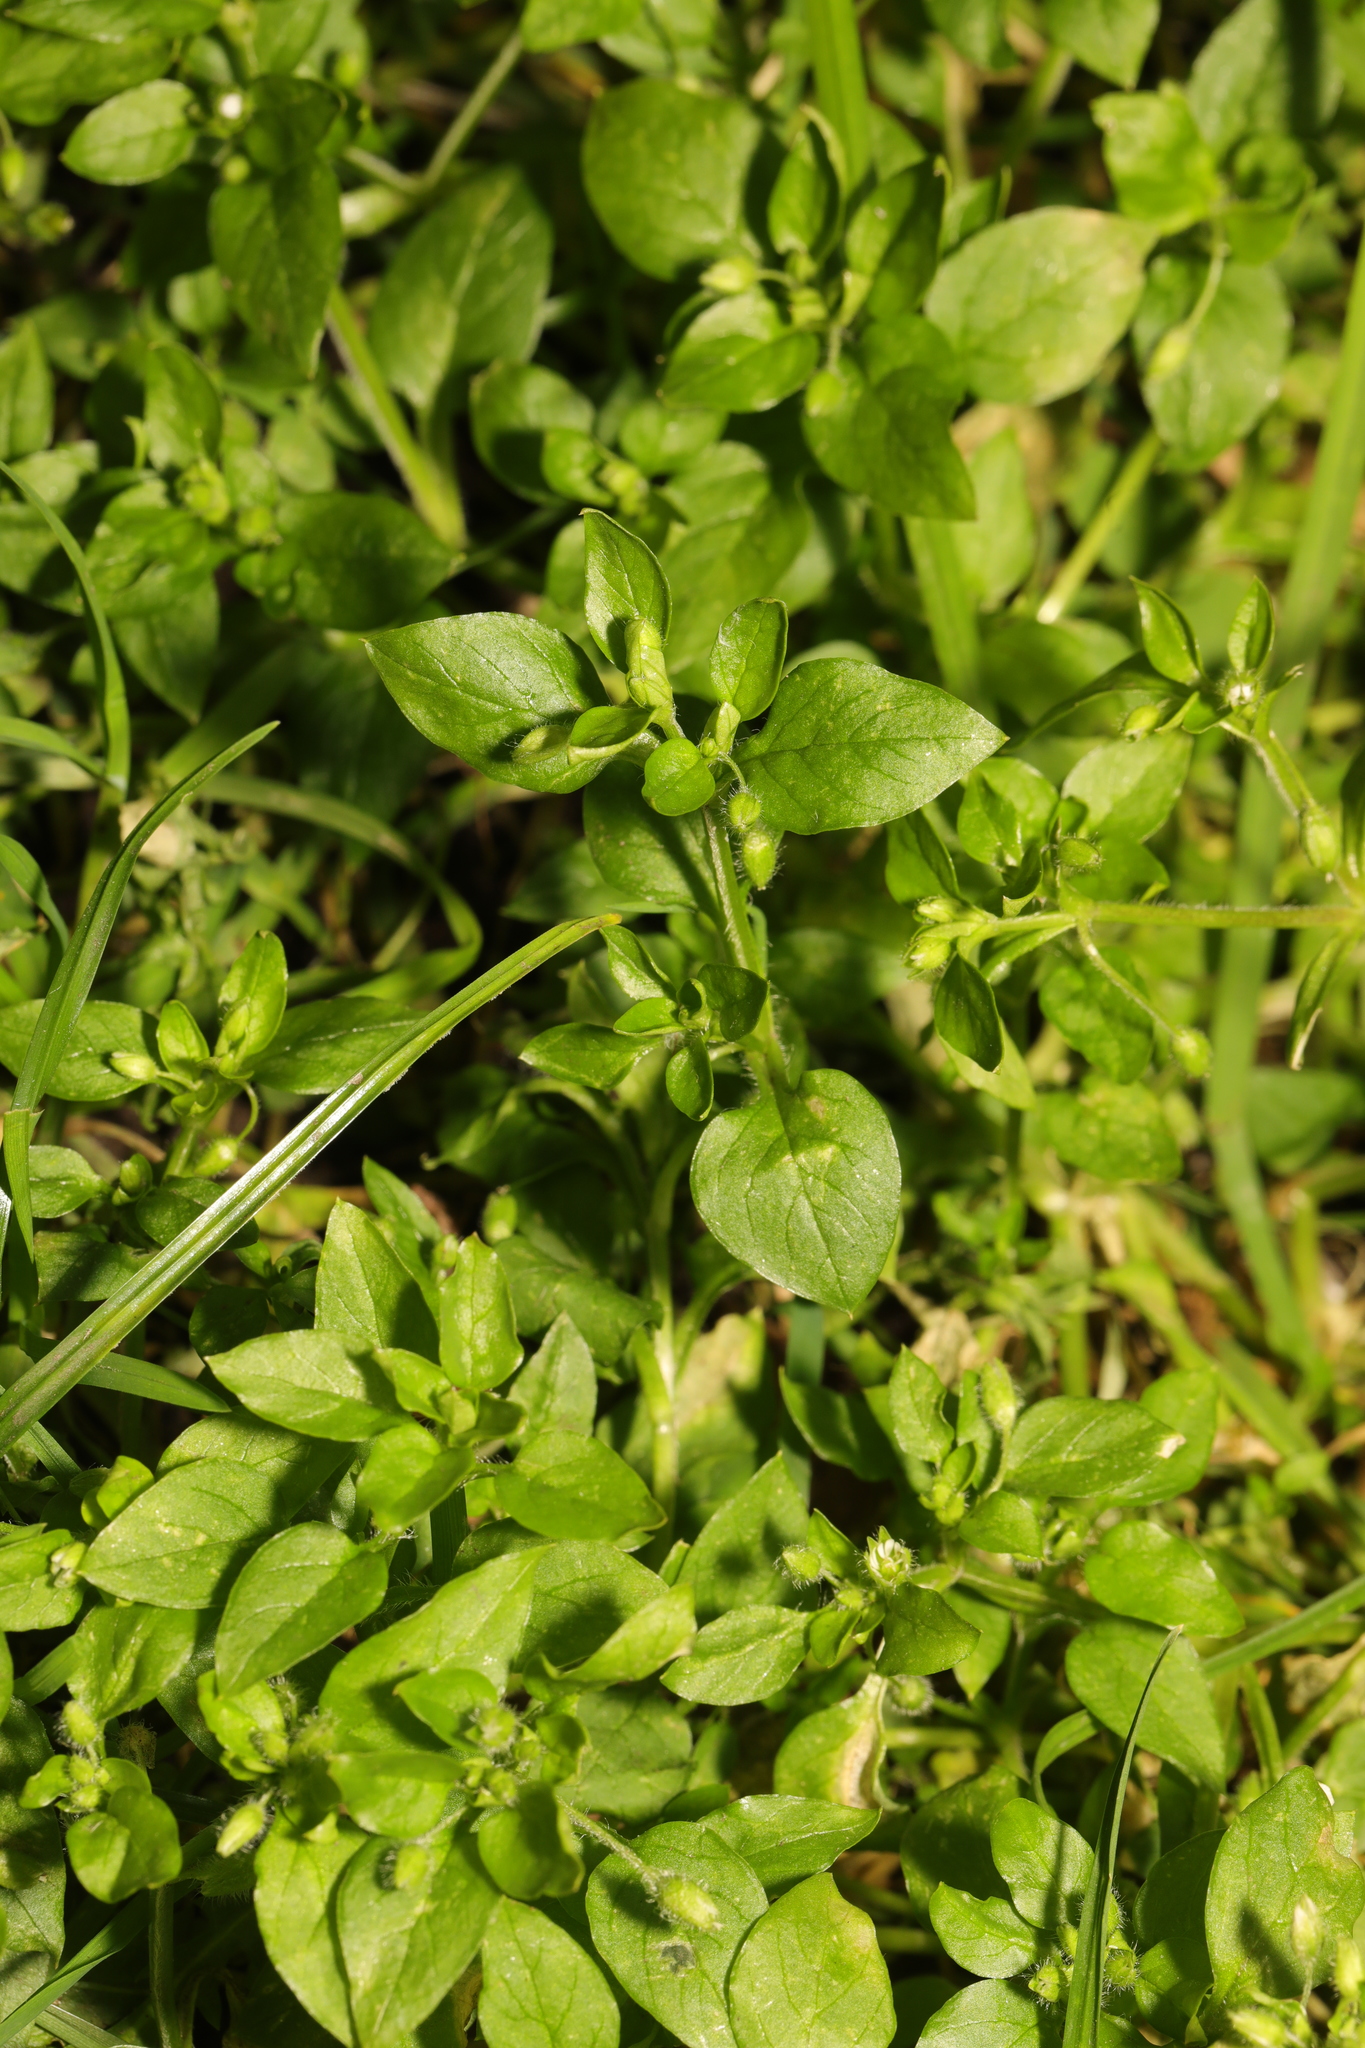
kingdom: Plantae
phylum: Tracheophyta
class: Magnoliopsida
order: Caryophyllales
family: Caryophyllaceae
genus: Stellaria
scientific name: Stellaria media
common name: Common chickweed
